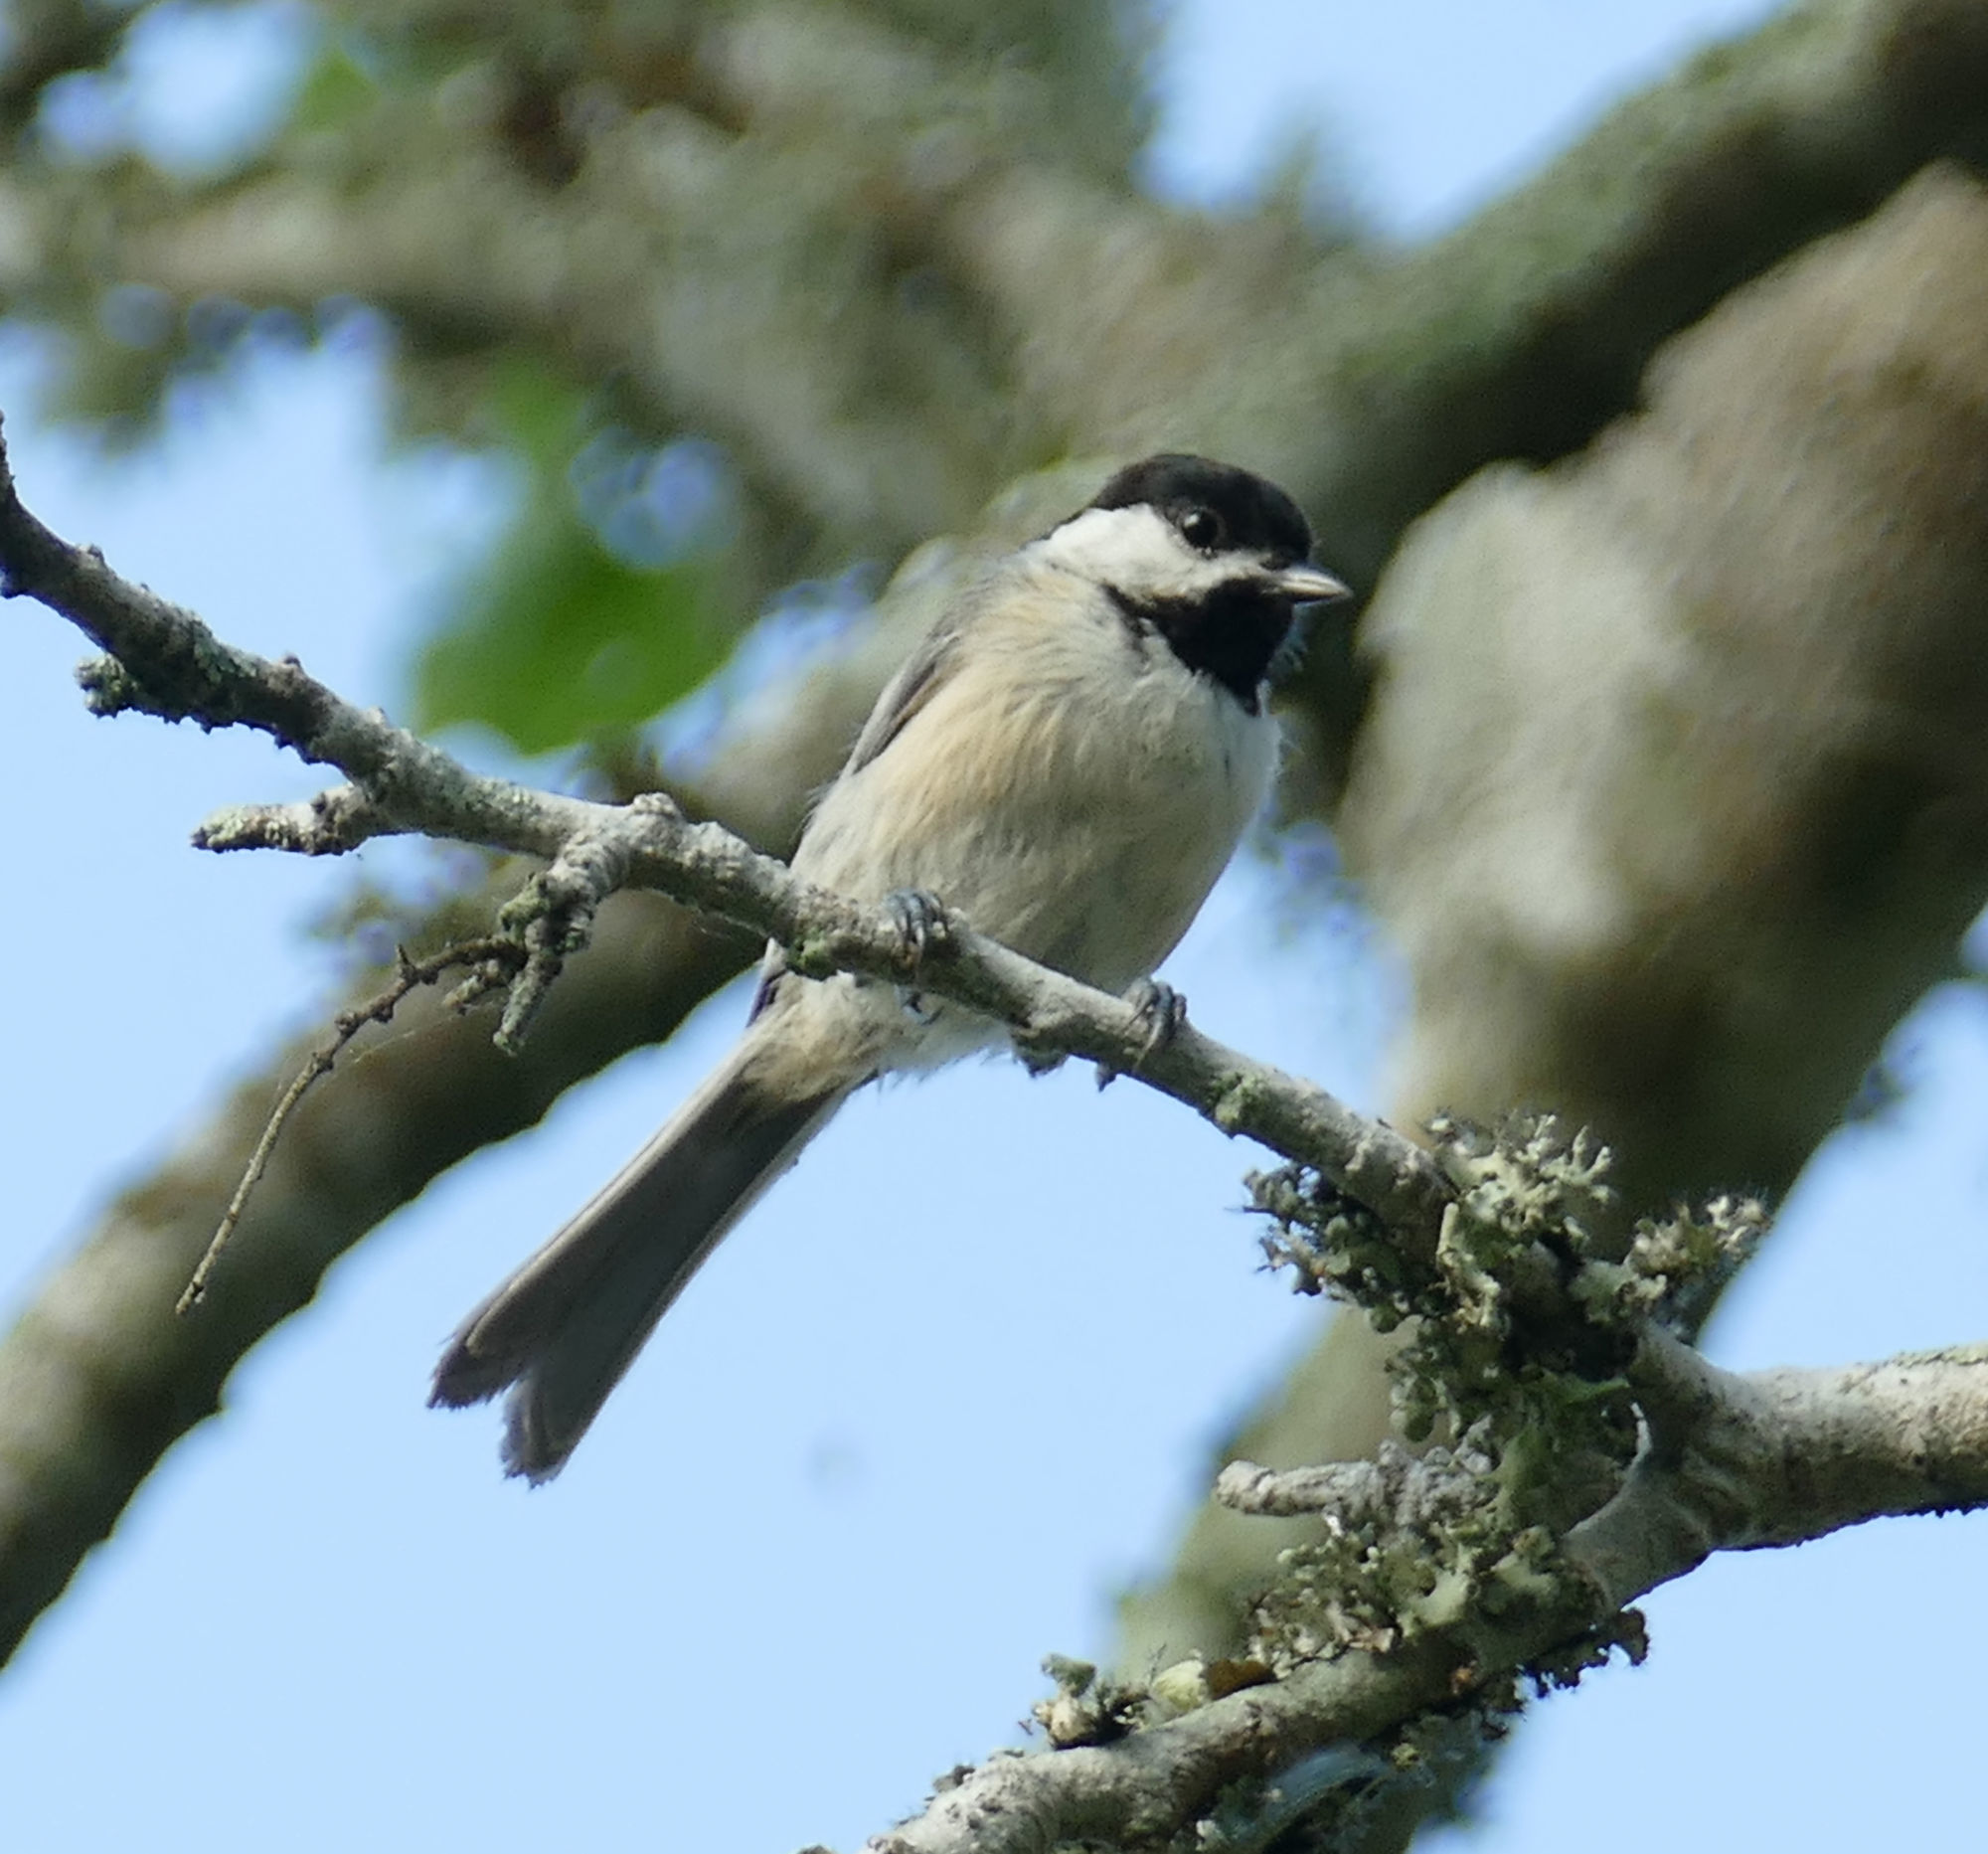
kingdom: Animalia
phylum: Chordata
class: Aves
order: Passeriformes
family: Paridae
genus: Poecile
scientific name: Poecile carolinensis
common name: Carolina chickadee
